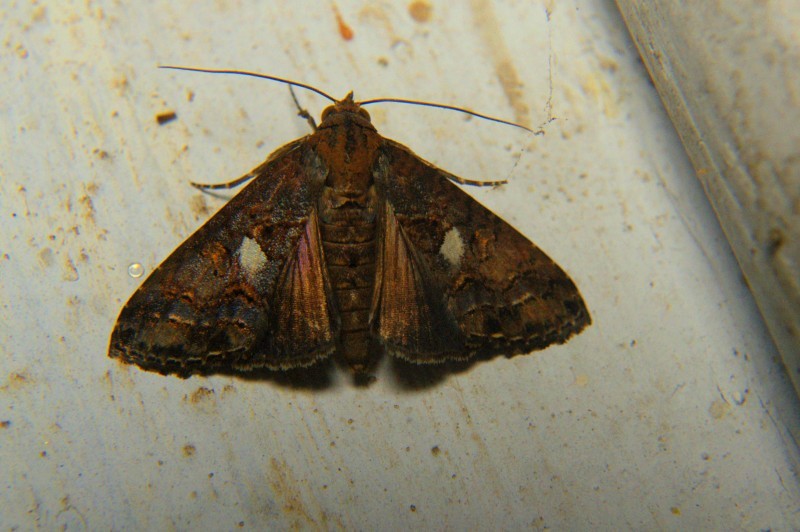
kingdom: Animalia
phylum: Arthropoda
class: Insecta
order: Lepidoptera
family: Euteliidae
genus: Odontodes
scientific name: Odontodes aleuca
